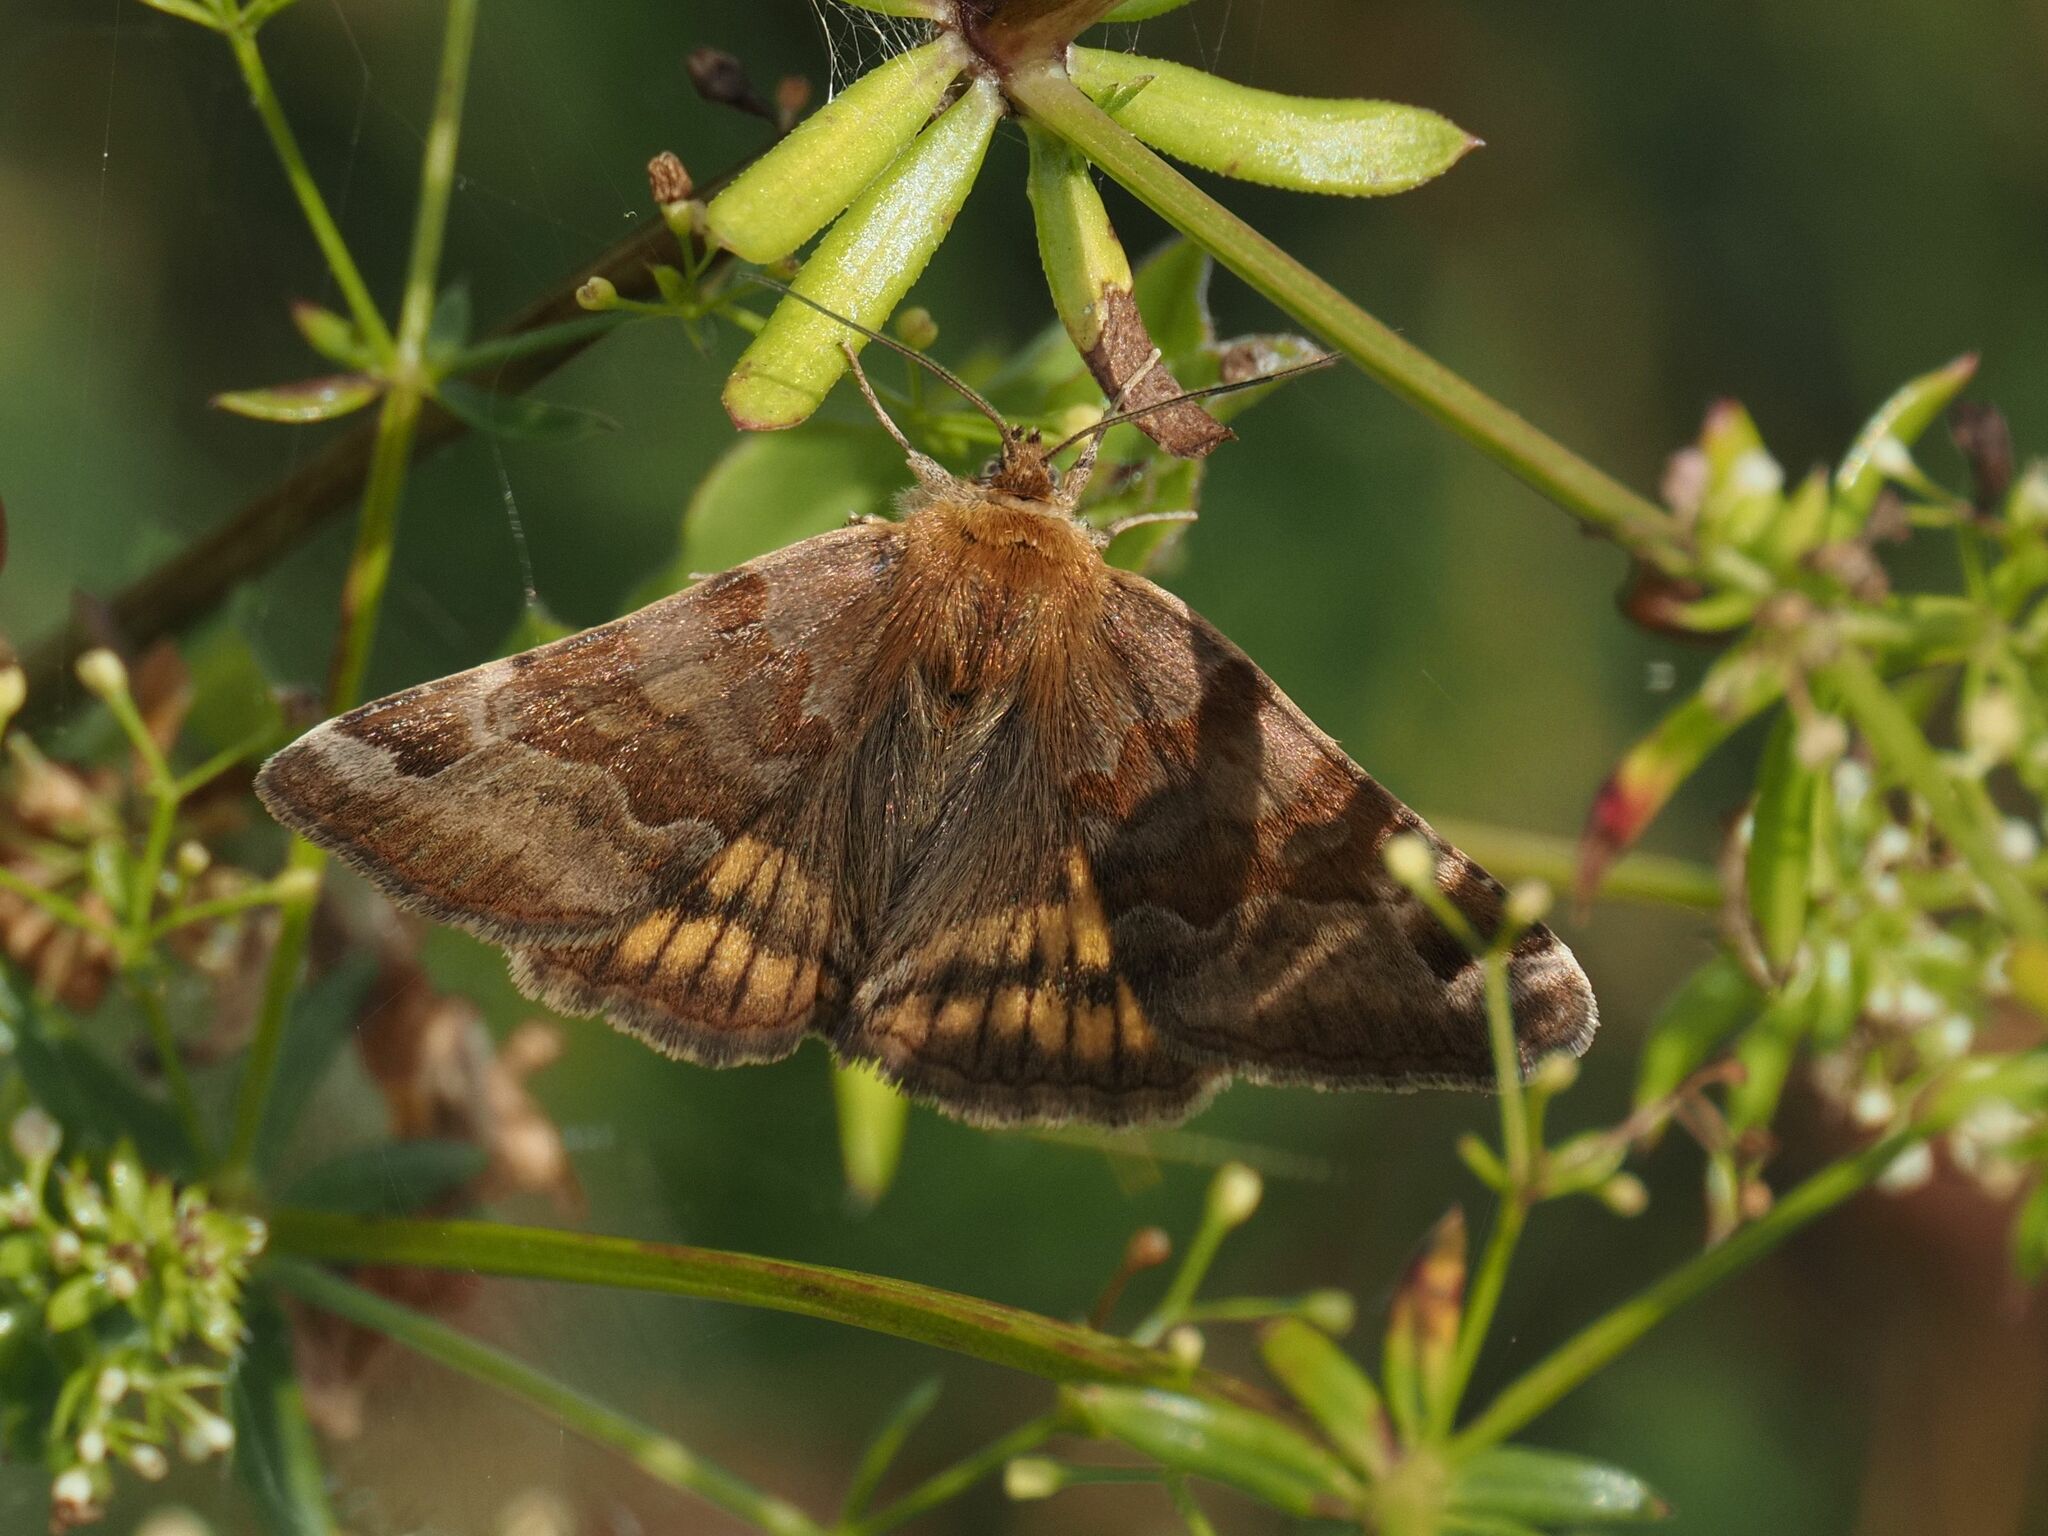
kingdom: Animalia
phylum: Arthropoda
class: Insecta
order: Lepidoptera
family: Erebidae
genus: Euclidia
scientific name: Euclidia glyphica
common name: Burnet companion
